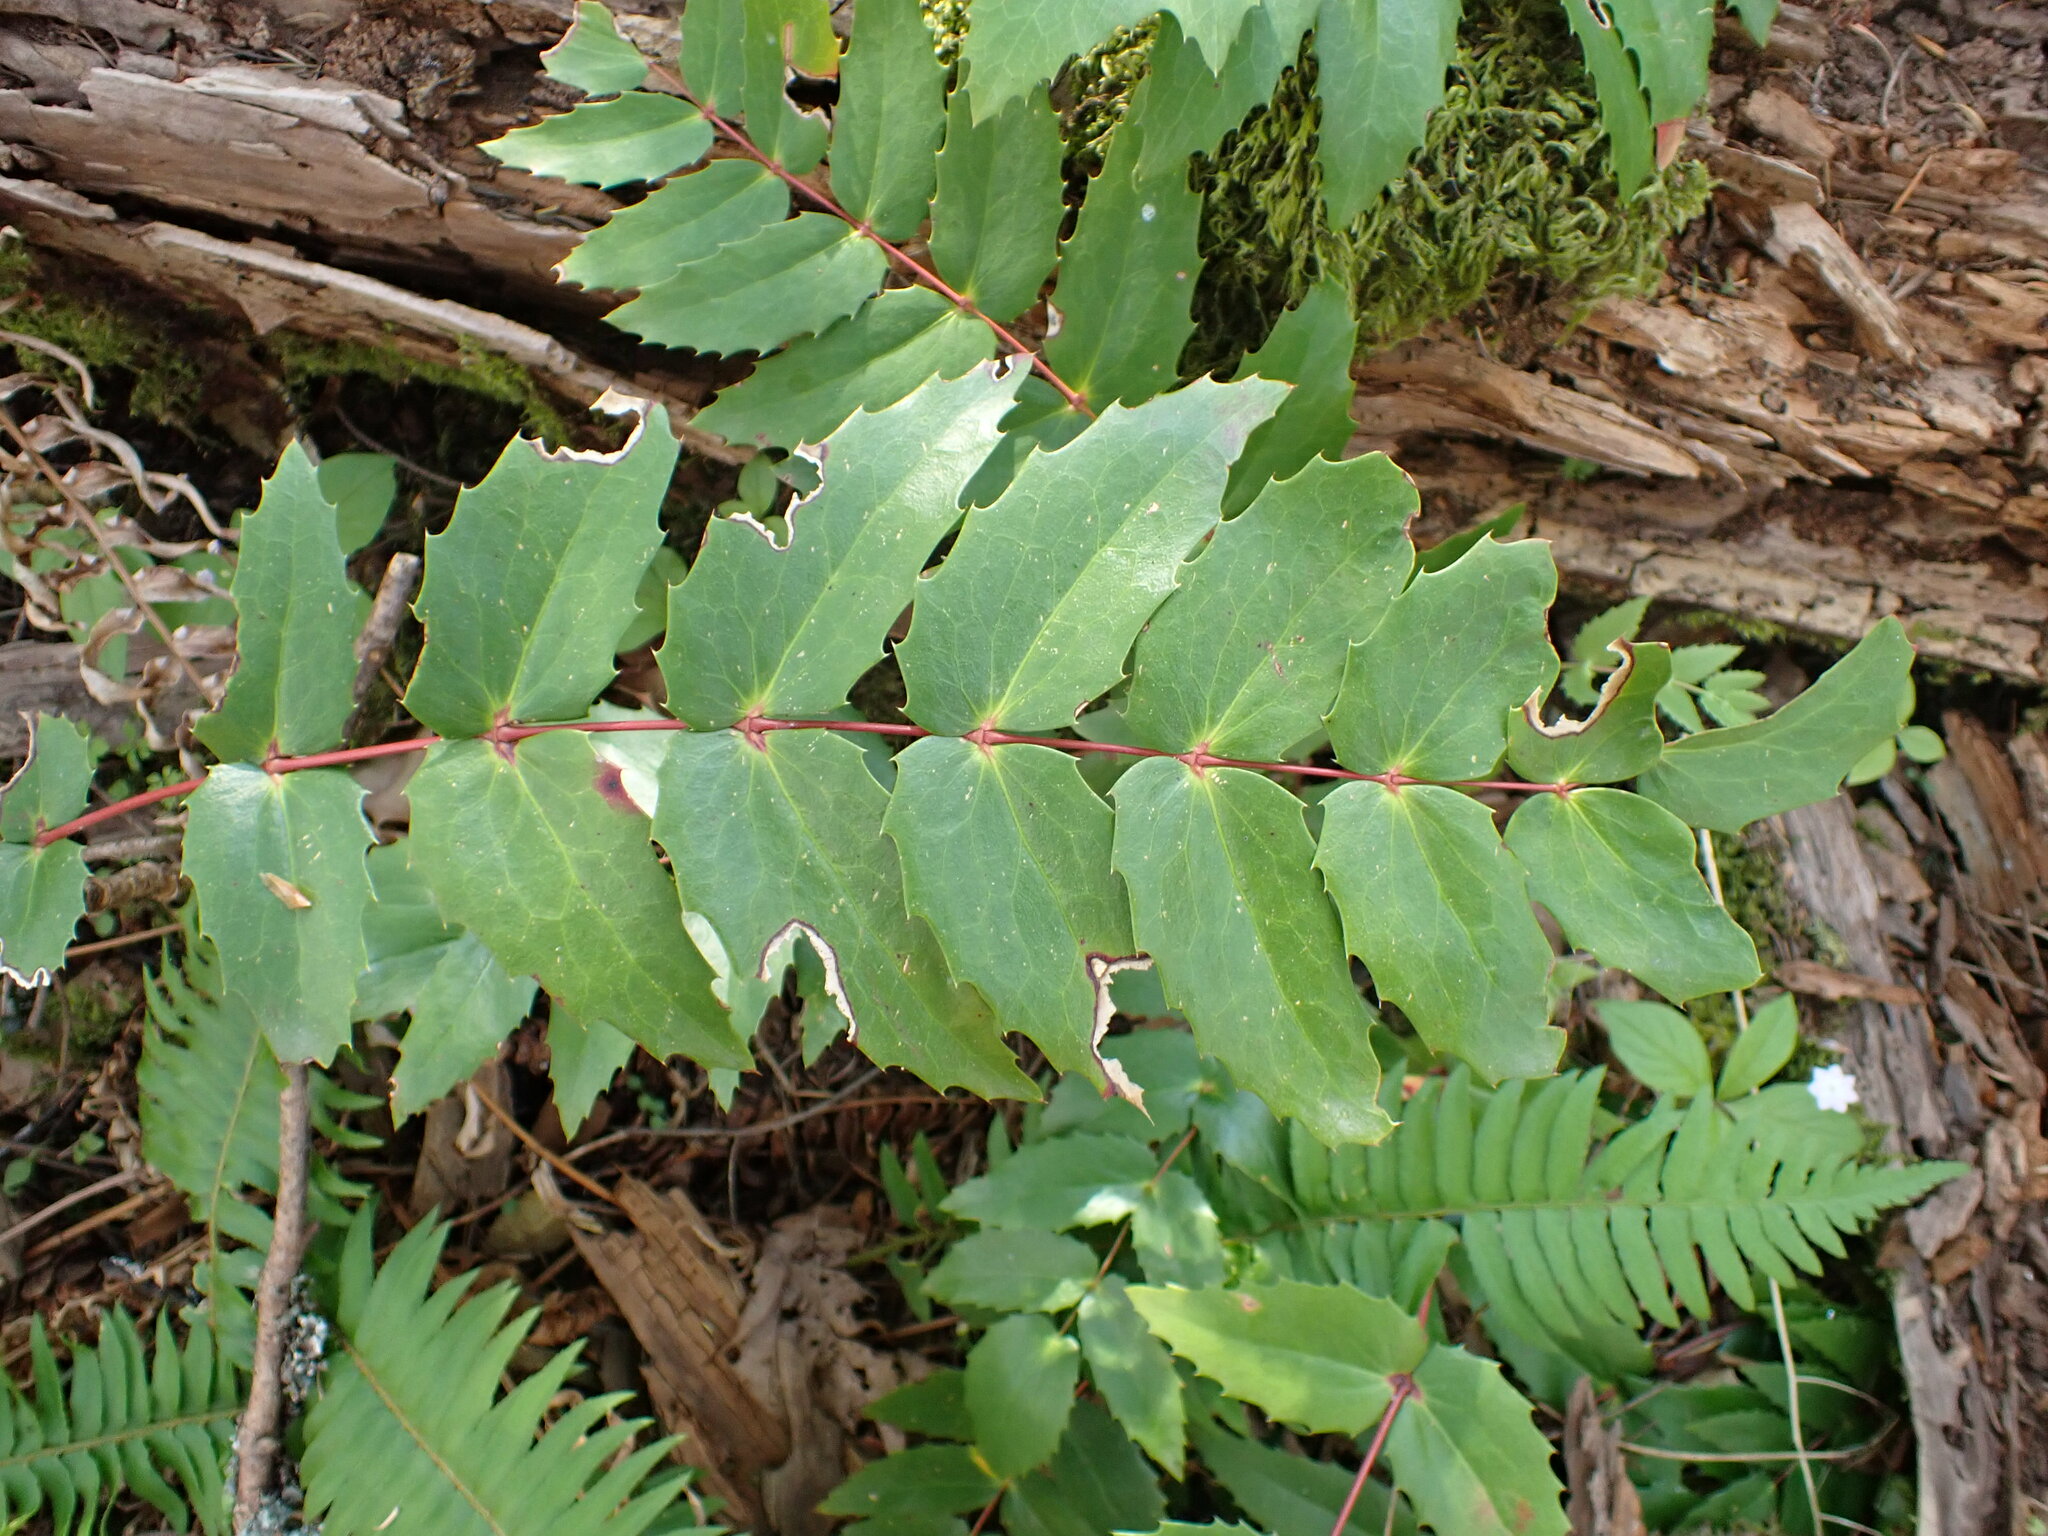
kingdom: Plantae
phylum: Tracheophyta
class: Magnoliopsida
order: Ranunculales
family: Berberidaceae
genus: Mahonia
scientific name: Mahonia nervosa
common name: Cascade oregon-grape
